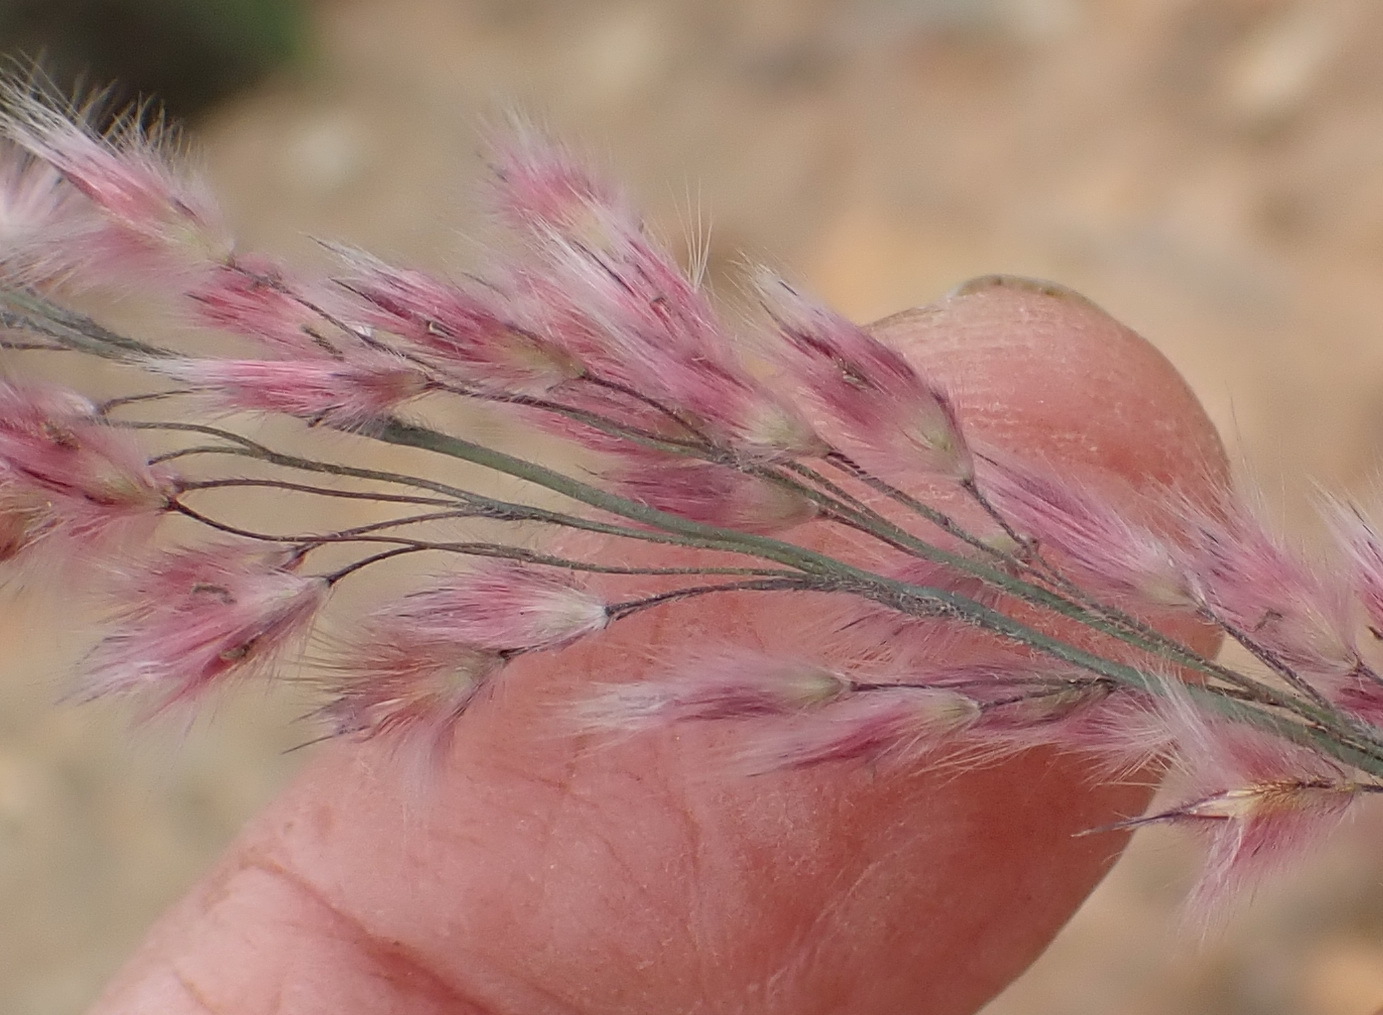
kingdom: Plantae
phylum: Tracheophyta
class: Liliopsida
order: Poales
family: Poaceae
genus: Melinis
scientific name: Melinis repens
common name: Rose natal grass
